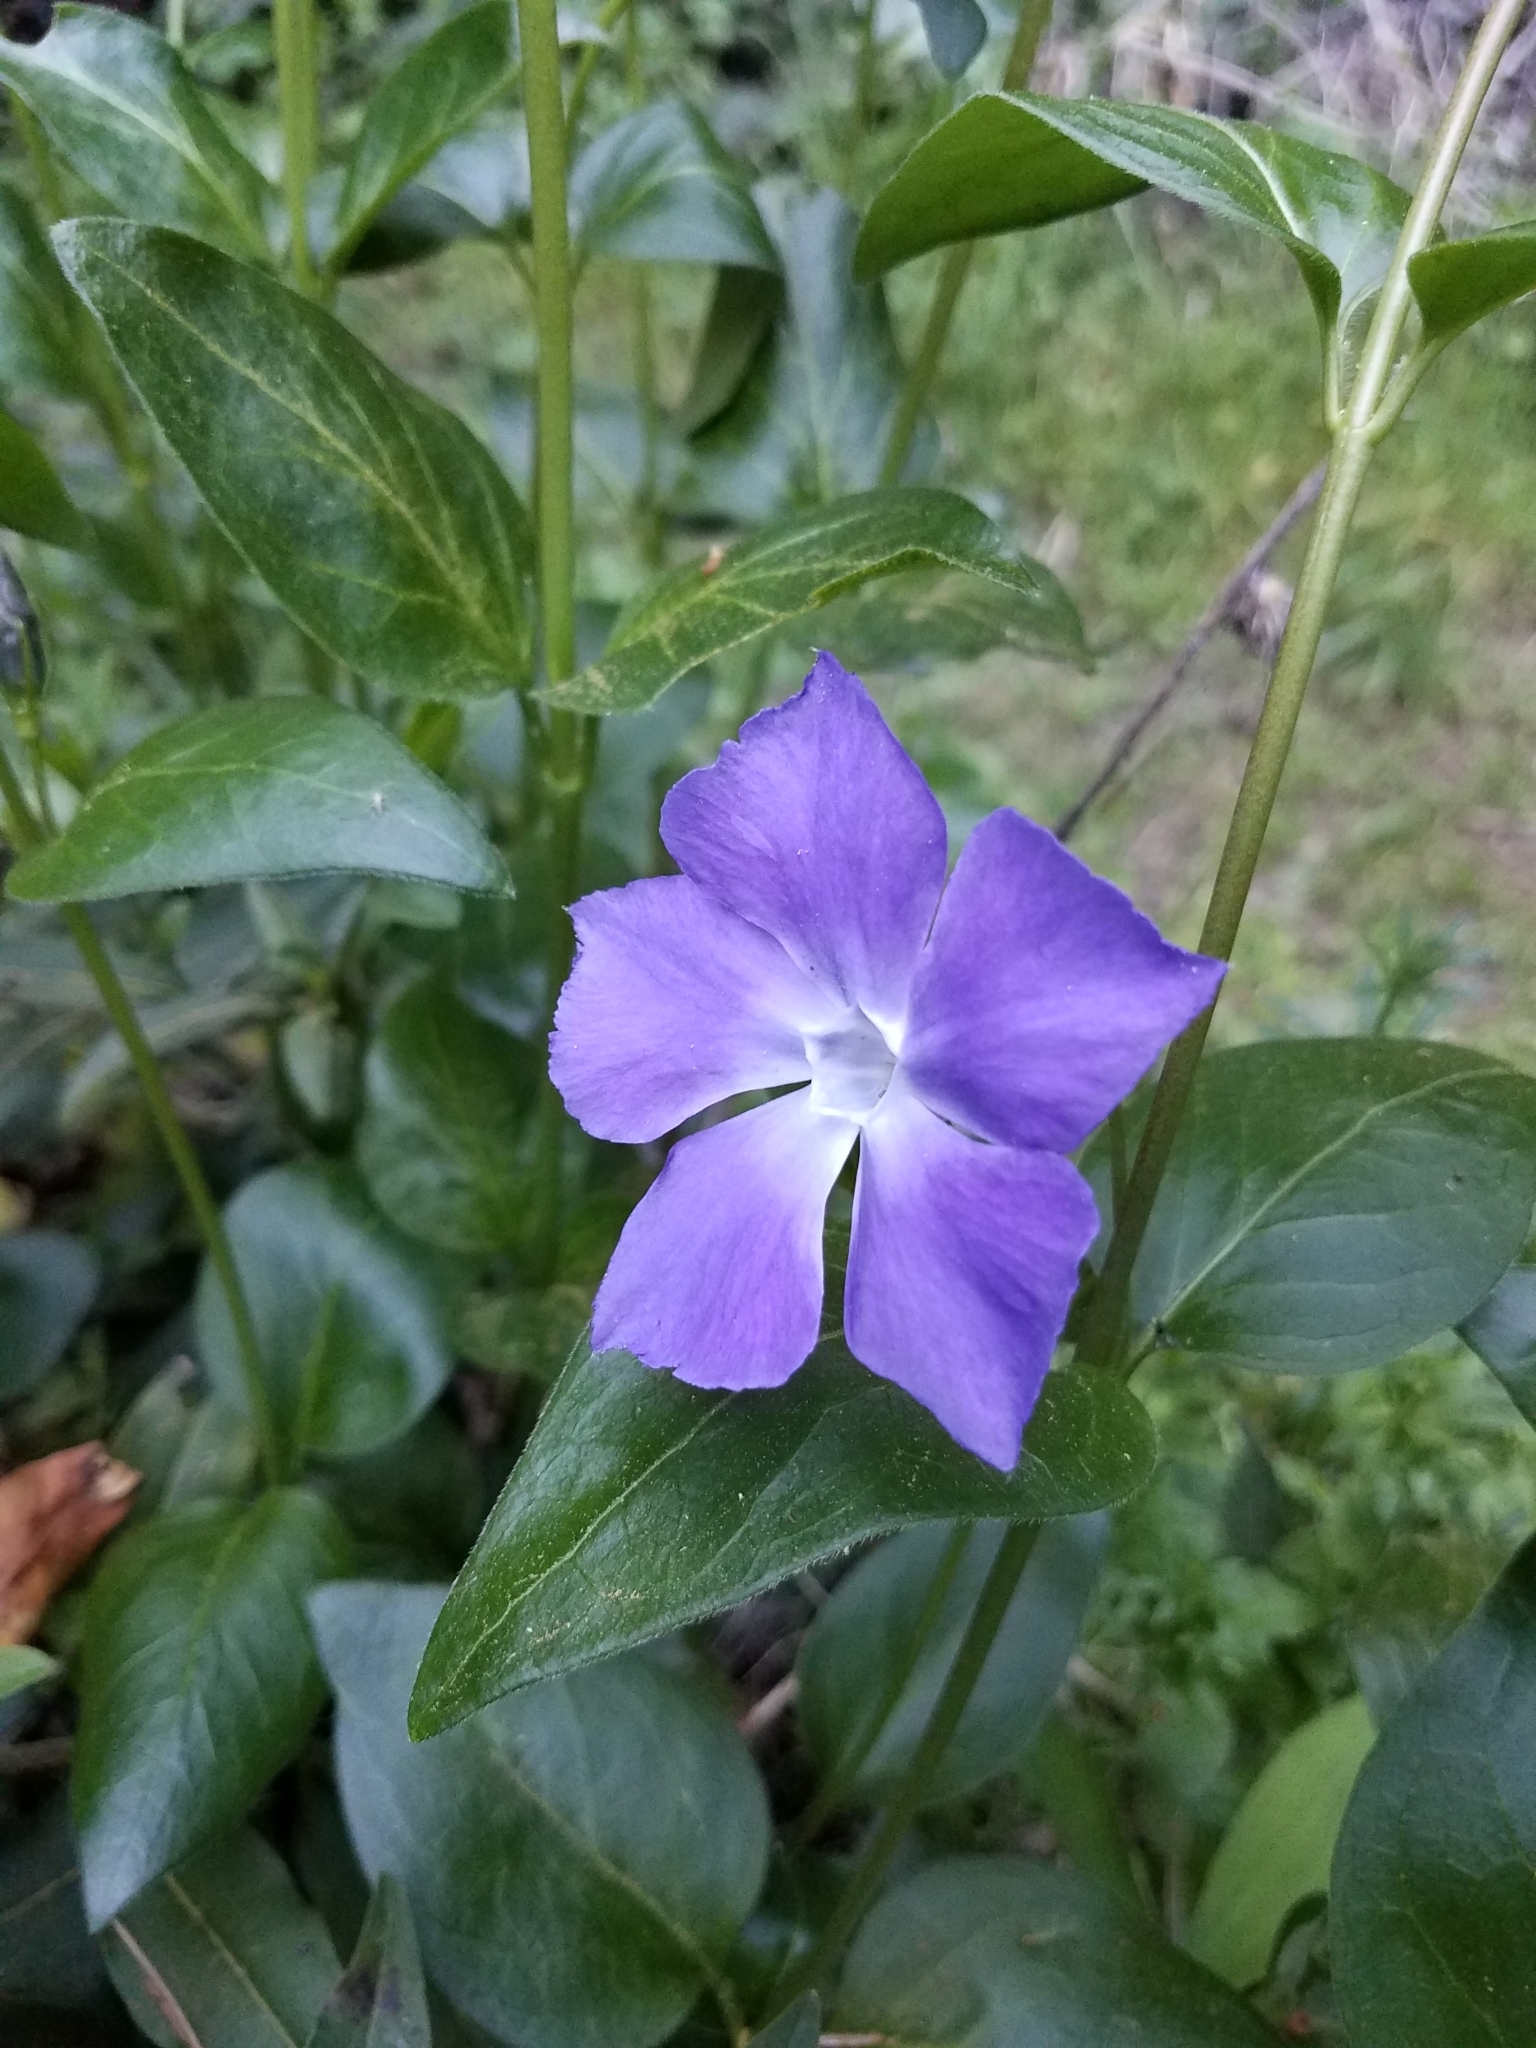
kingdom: Plantae
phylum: Tracheophyta
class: Magnoliopsida
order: Gentianales
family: Apocynaceae
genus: Vinca
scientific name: Vinca major
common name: Greater periwinkle
